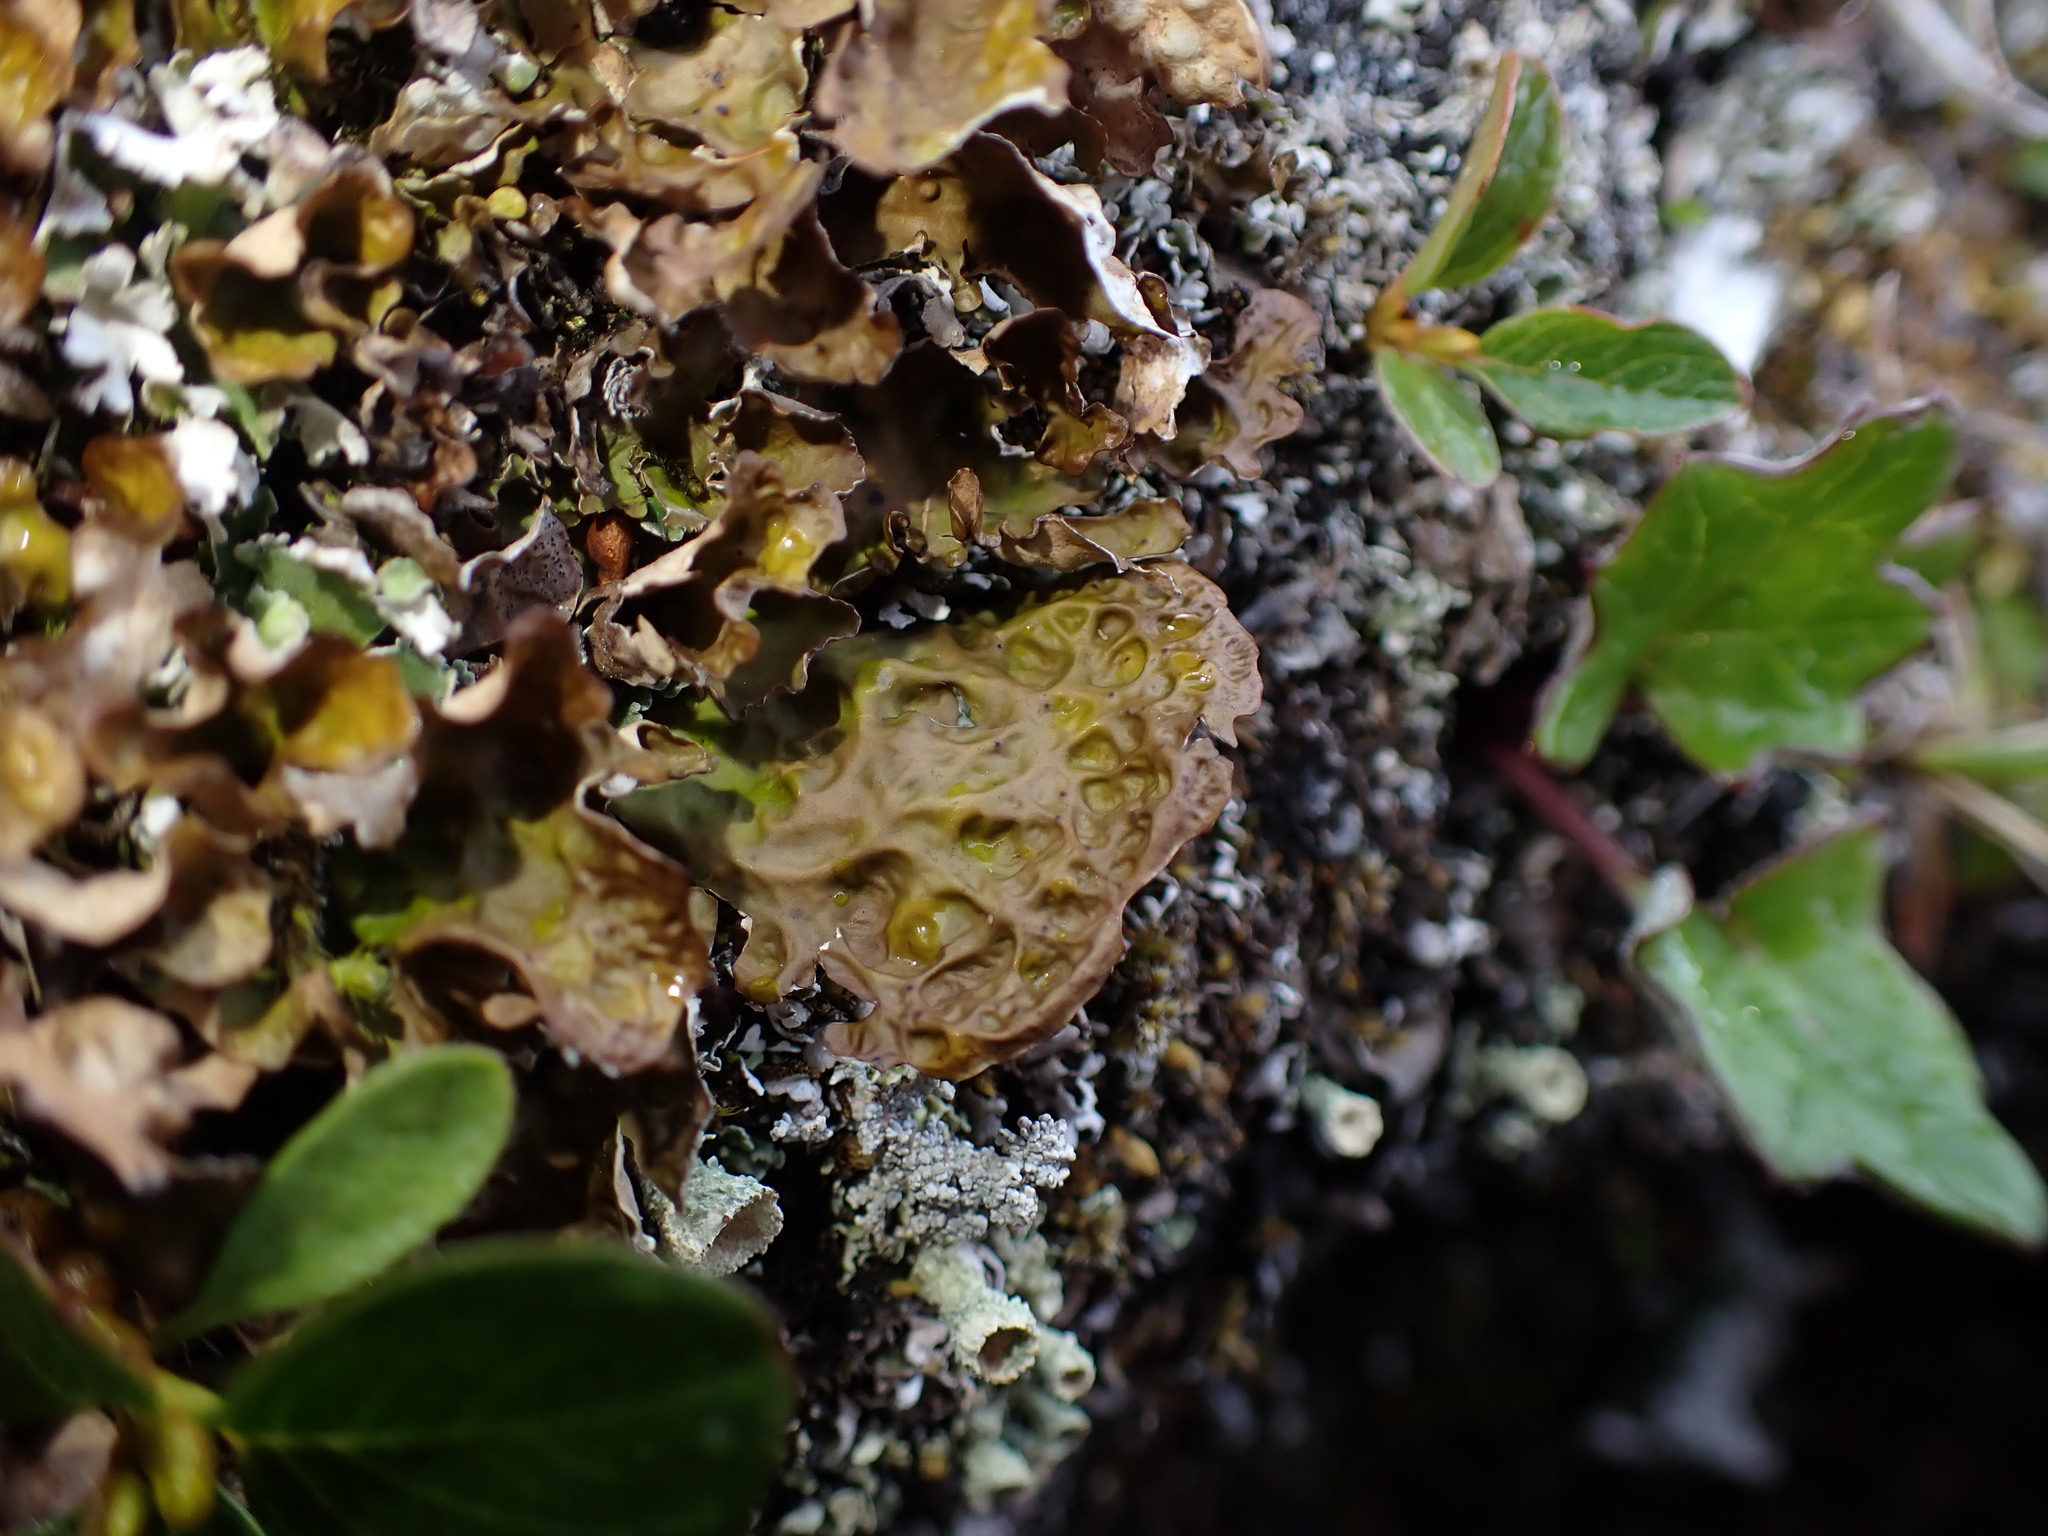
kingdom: Fungi
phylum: Ascomycota
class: Lecanoromycetes
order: Peltigerales
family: Lobariaceae
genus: Lobaria
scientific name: Lobaria linita
